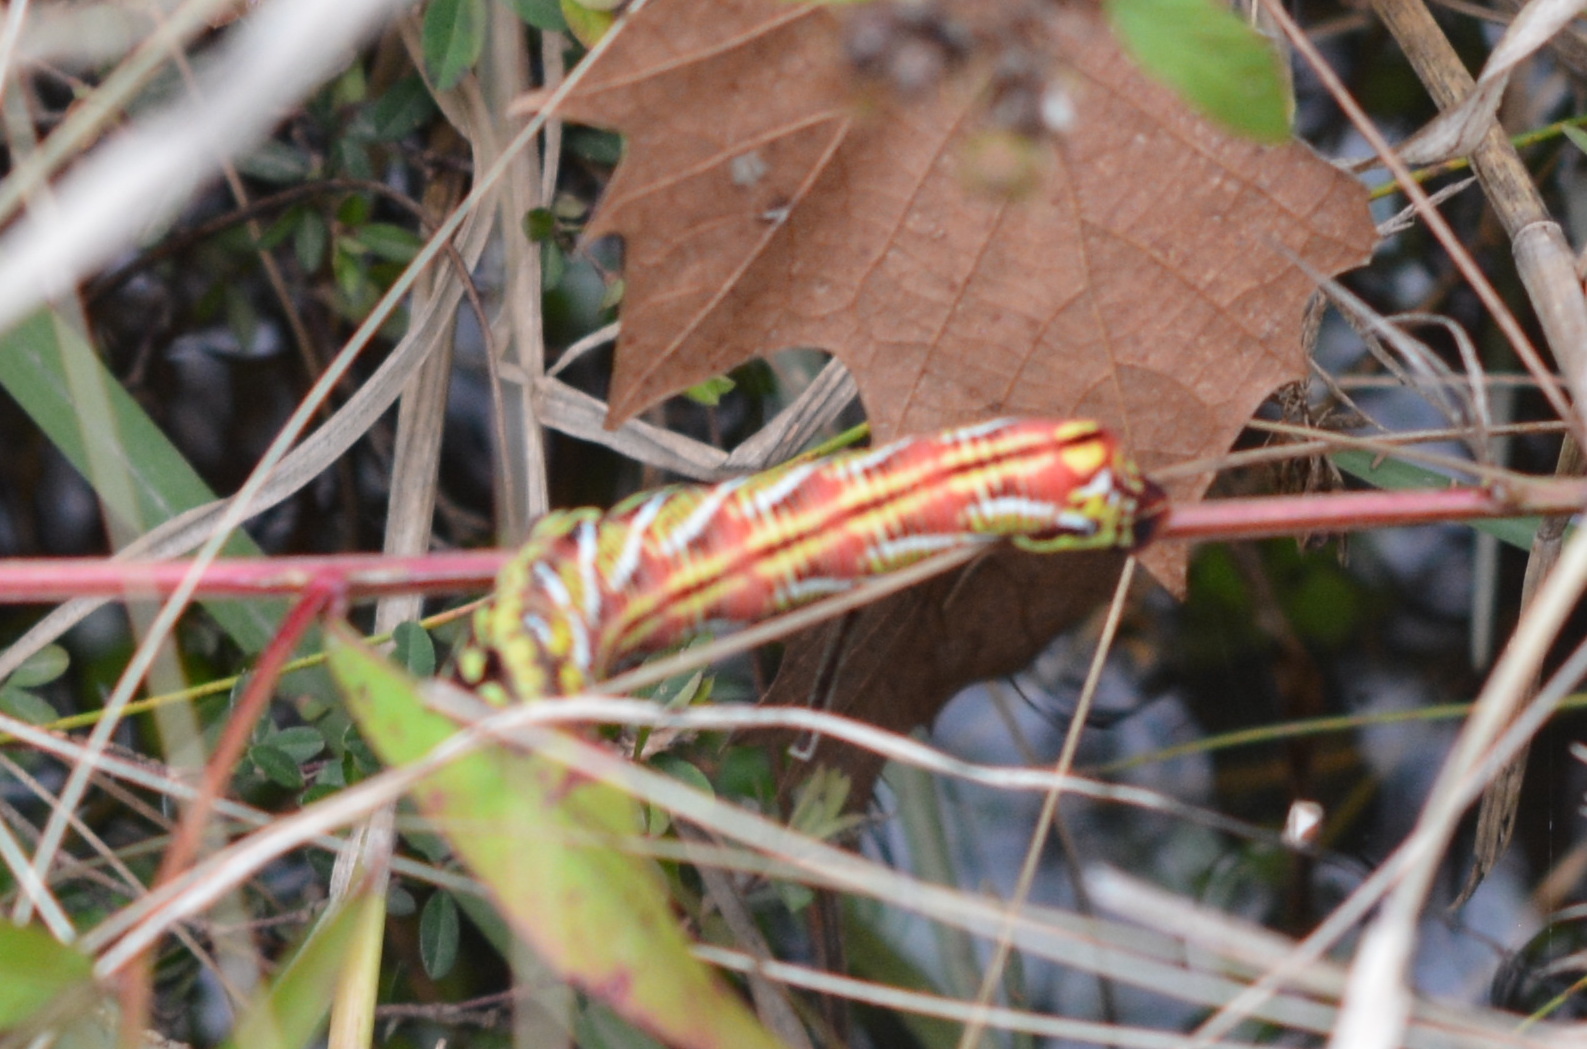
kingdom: Animalia
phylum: Arthropoda
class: Insecta
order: Lepidoptera
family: Sphingidae
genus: Eumorpha
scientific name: Eumorpha fasciatus
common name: Banded sphinx
